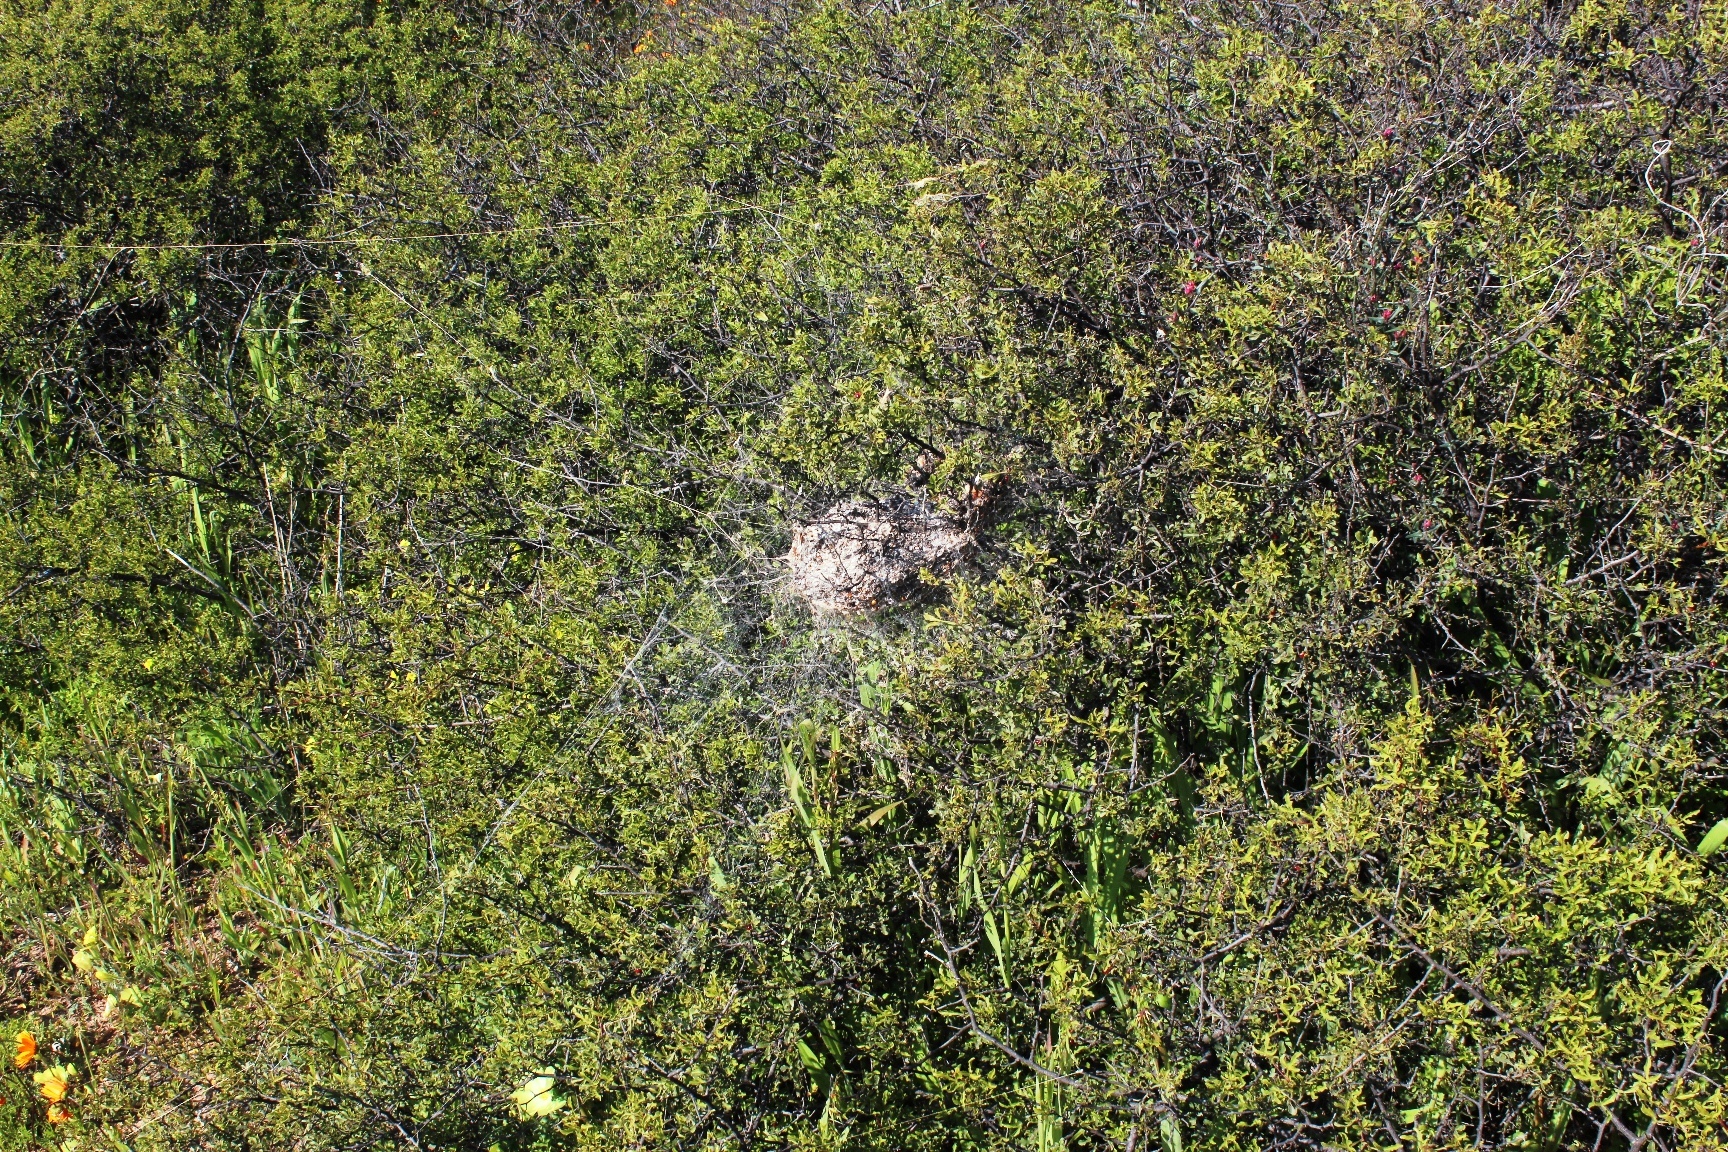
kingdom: Animalia
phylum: Arthropoda
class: Arachnida
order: Araneae
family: Eresidae
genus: Stegodyphus
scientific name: Stegodyphus
